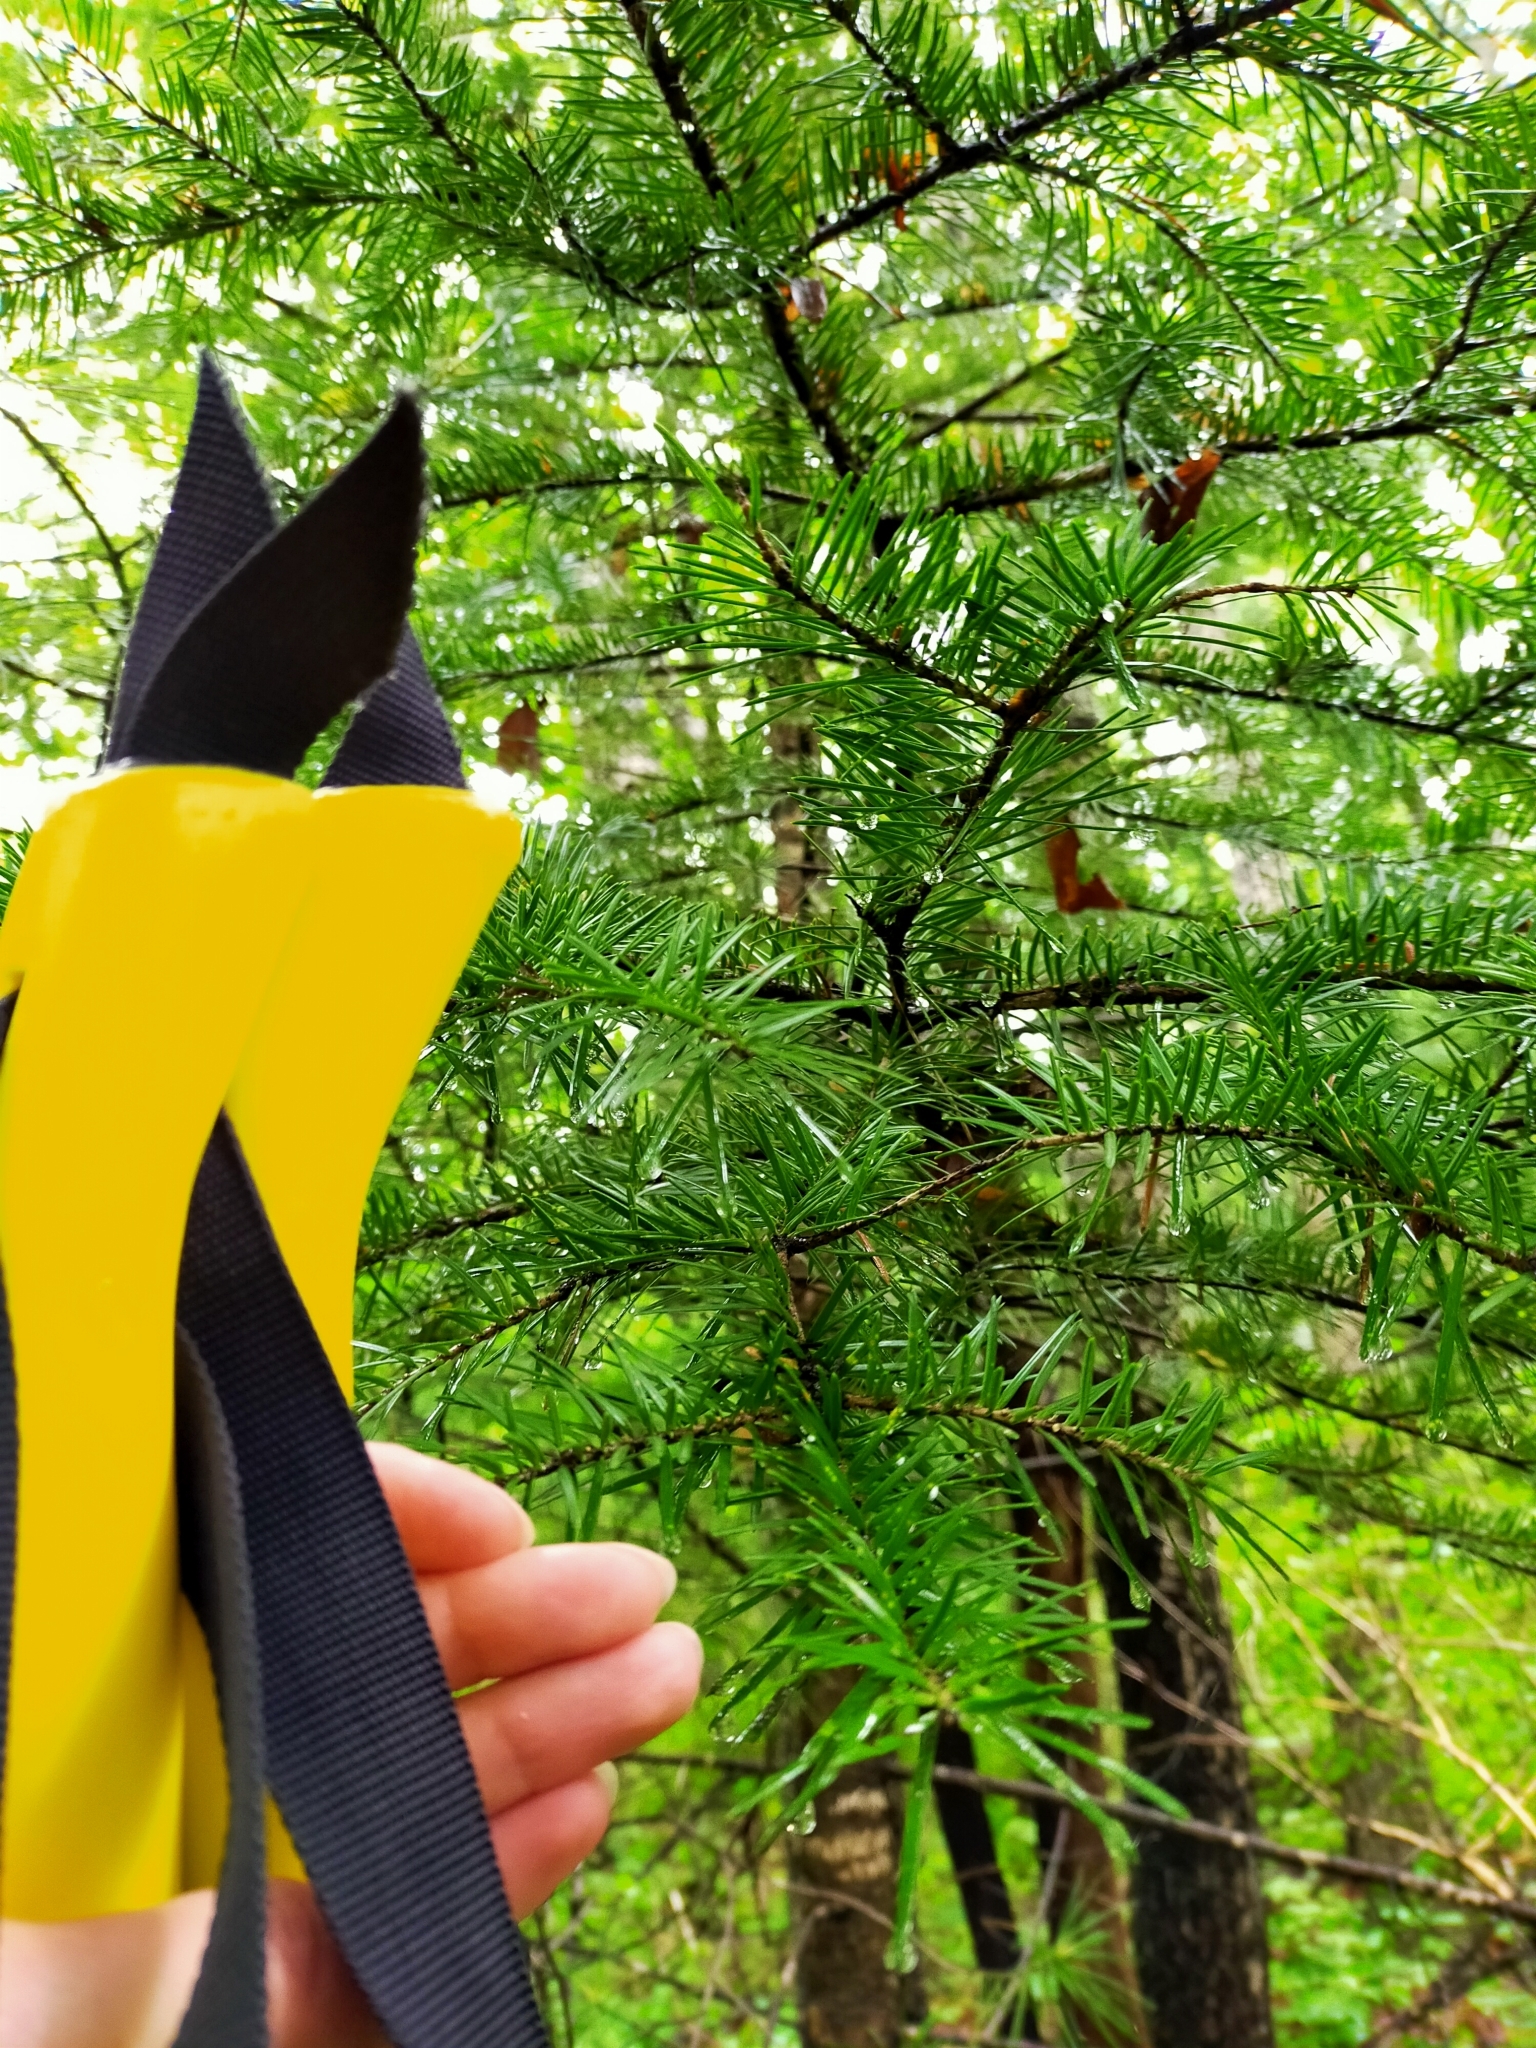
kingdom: Plantae
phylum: Tracheophyta
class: Pinopsida
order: Pinales
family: Pinaceae
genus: Abies
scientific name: Abies holophylla
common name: Manchurian fir
